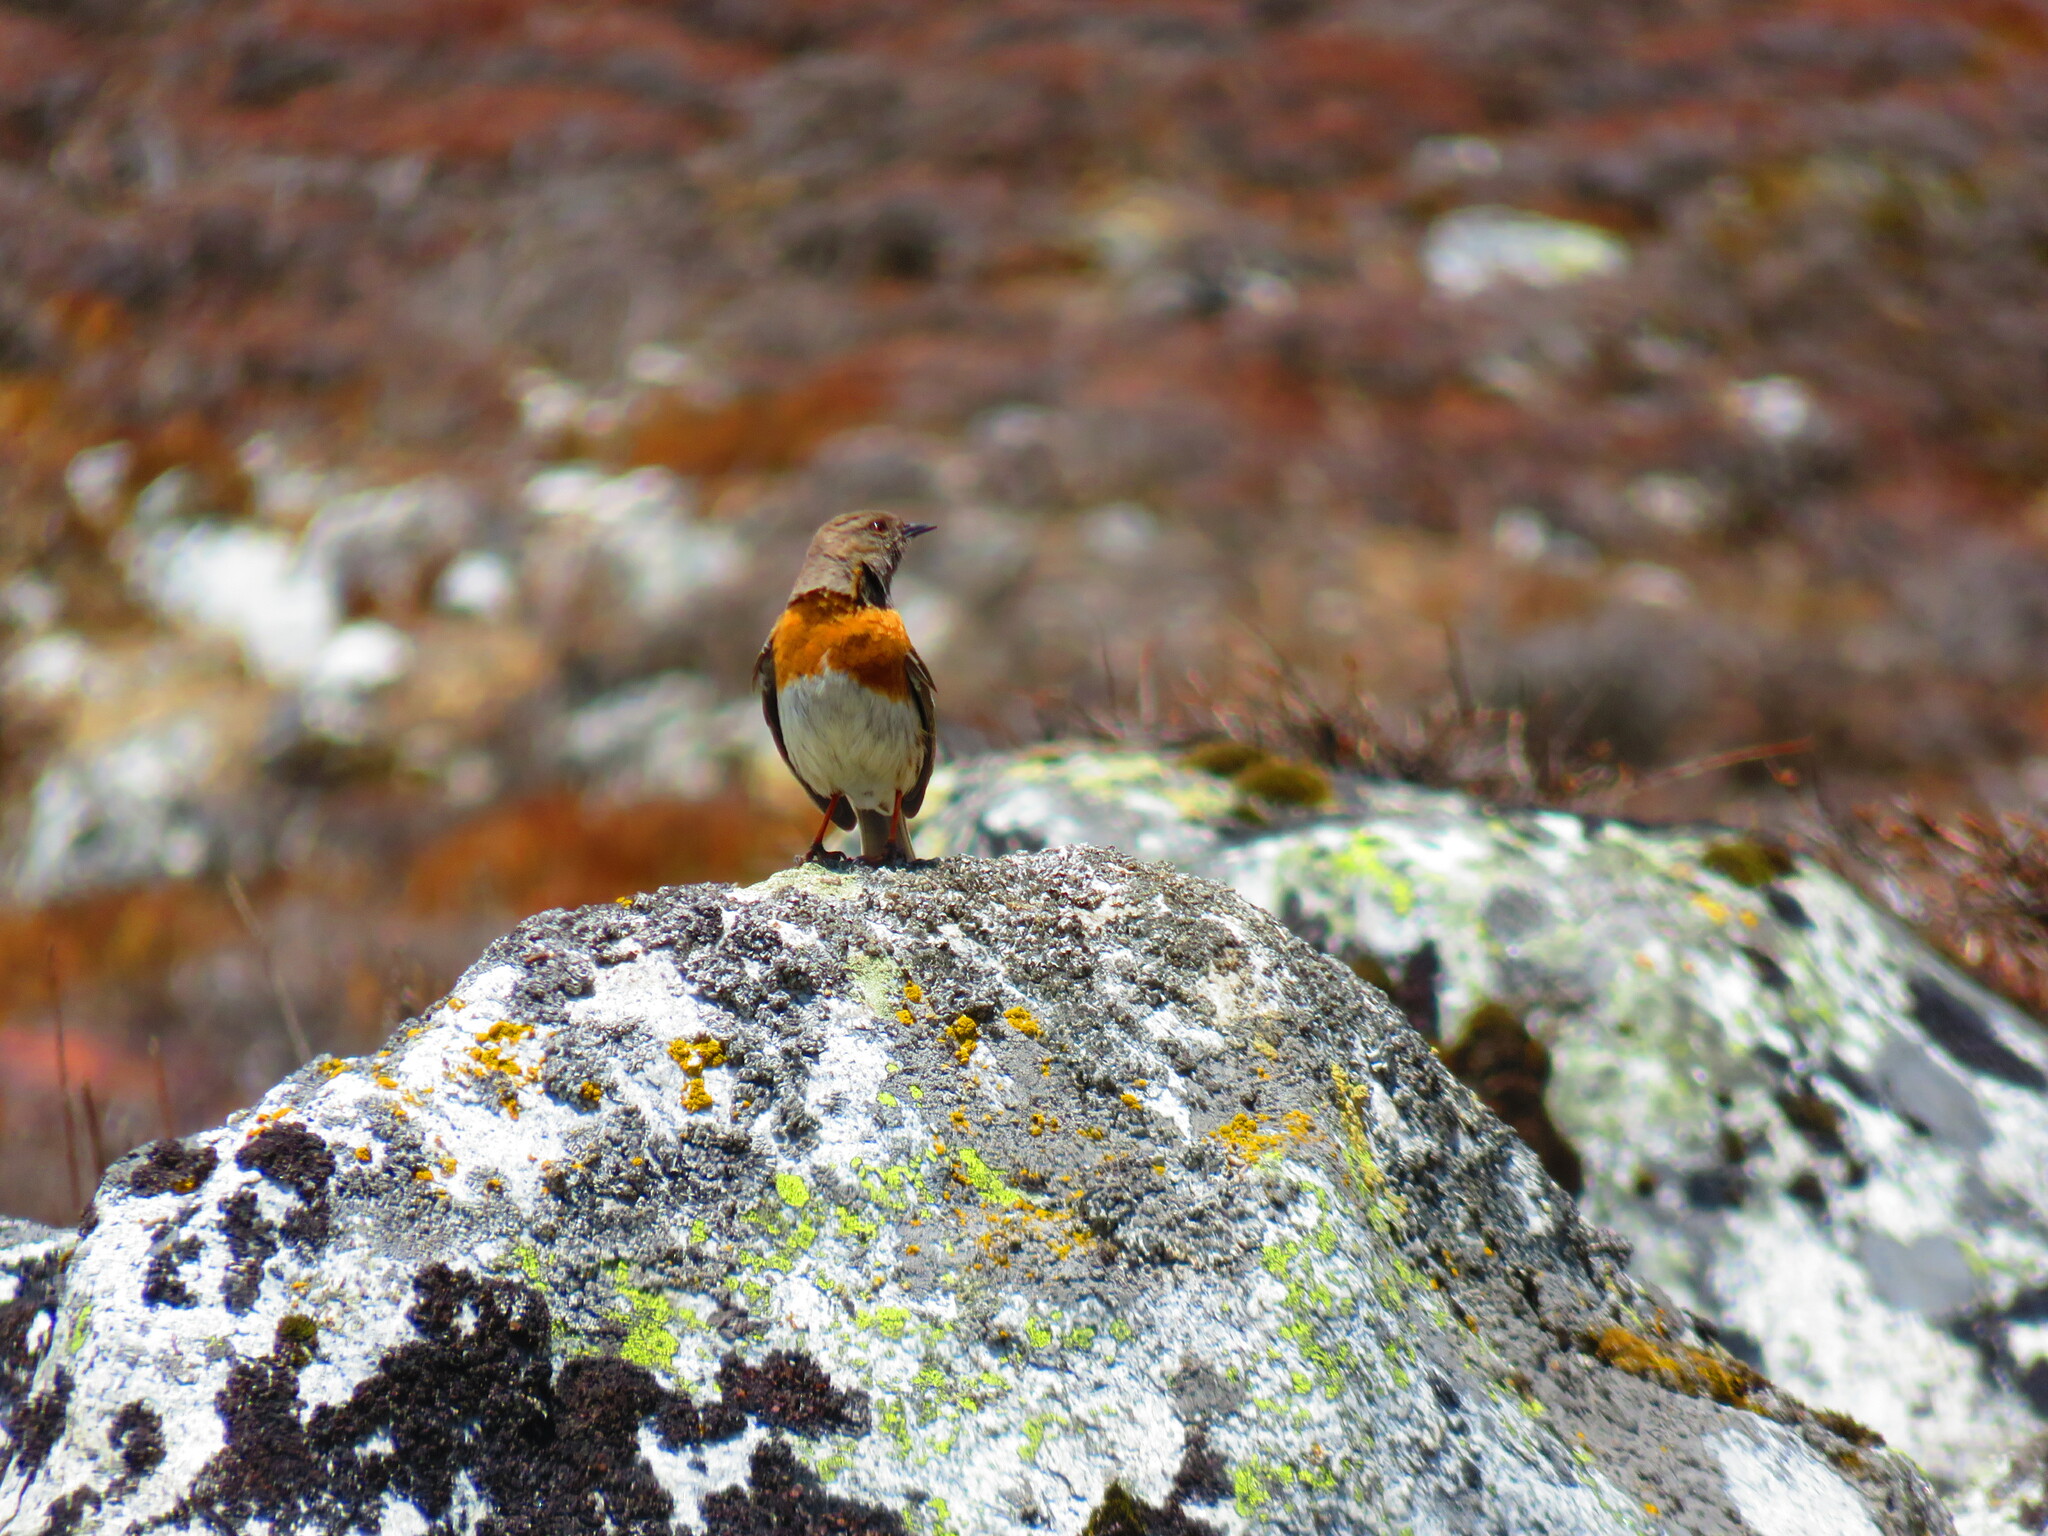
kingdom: Animalia
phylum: Chordata
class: Aves
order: Passeriformes
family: Prunellidae
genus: Prunella
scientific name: Prunella rubeculoides
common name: Robin accentor
